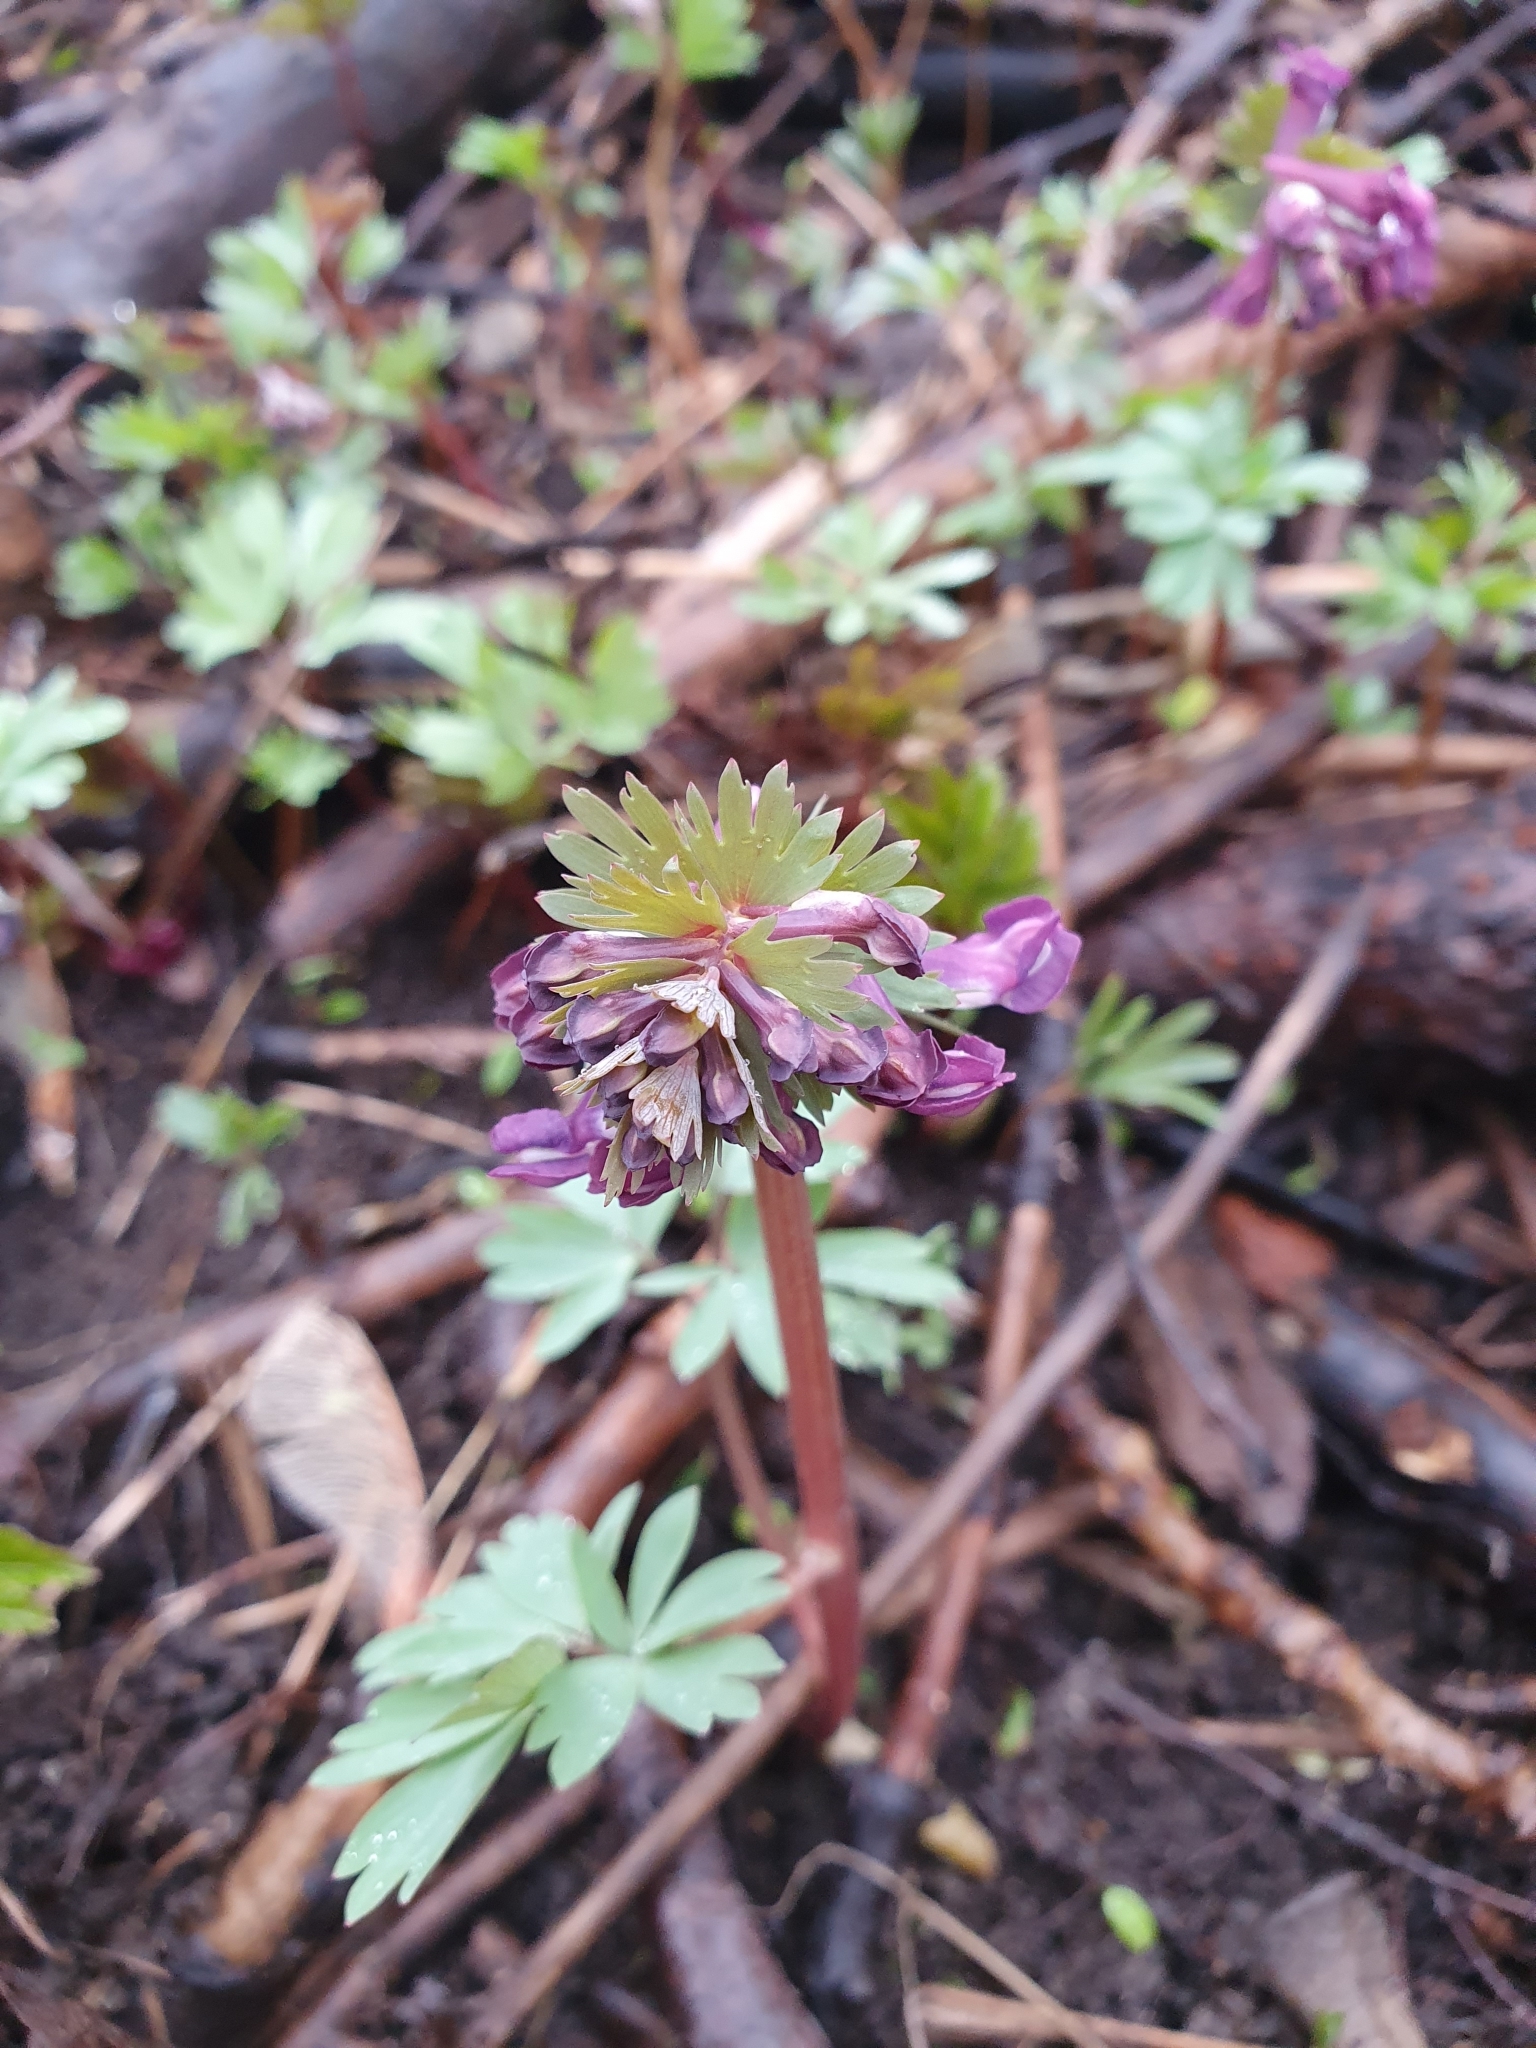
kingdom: Plantae
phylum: Tracheophyta
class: Magnoliopsida
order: Ranunculales
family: Papaveraceae
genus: Corydalis
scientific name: Corydalis solida
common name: Bird-in-a-bush
